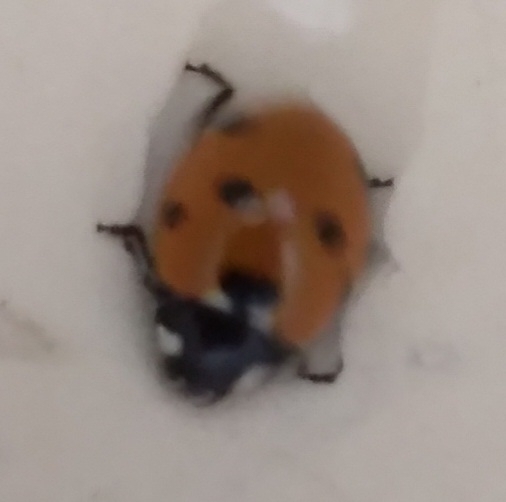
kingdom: Animalia
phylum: Arthropoda
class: Insecta
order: Coleoptera
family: Coccinellidae
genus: Coccinella
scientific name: Coccinella septempunctata
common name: Sevenspotted lady beetle
